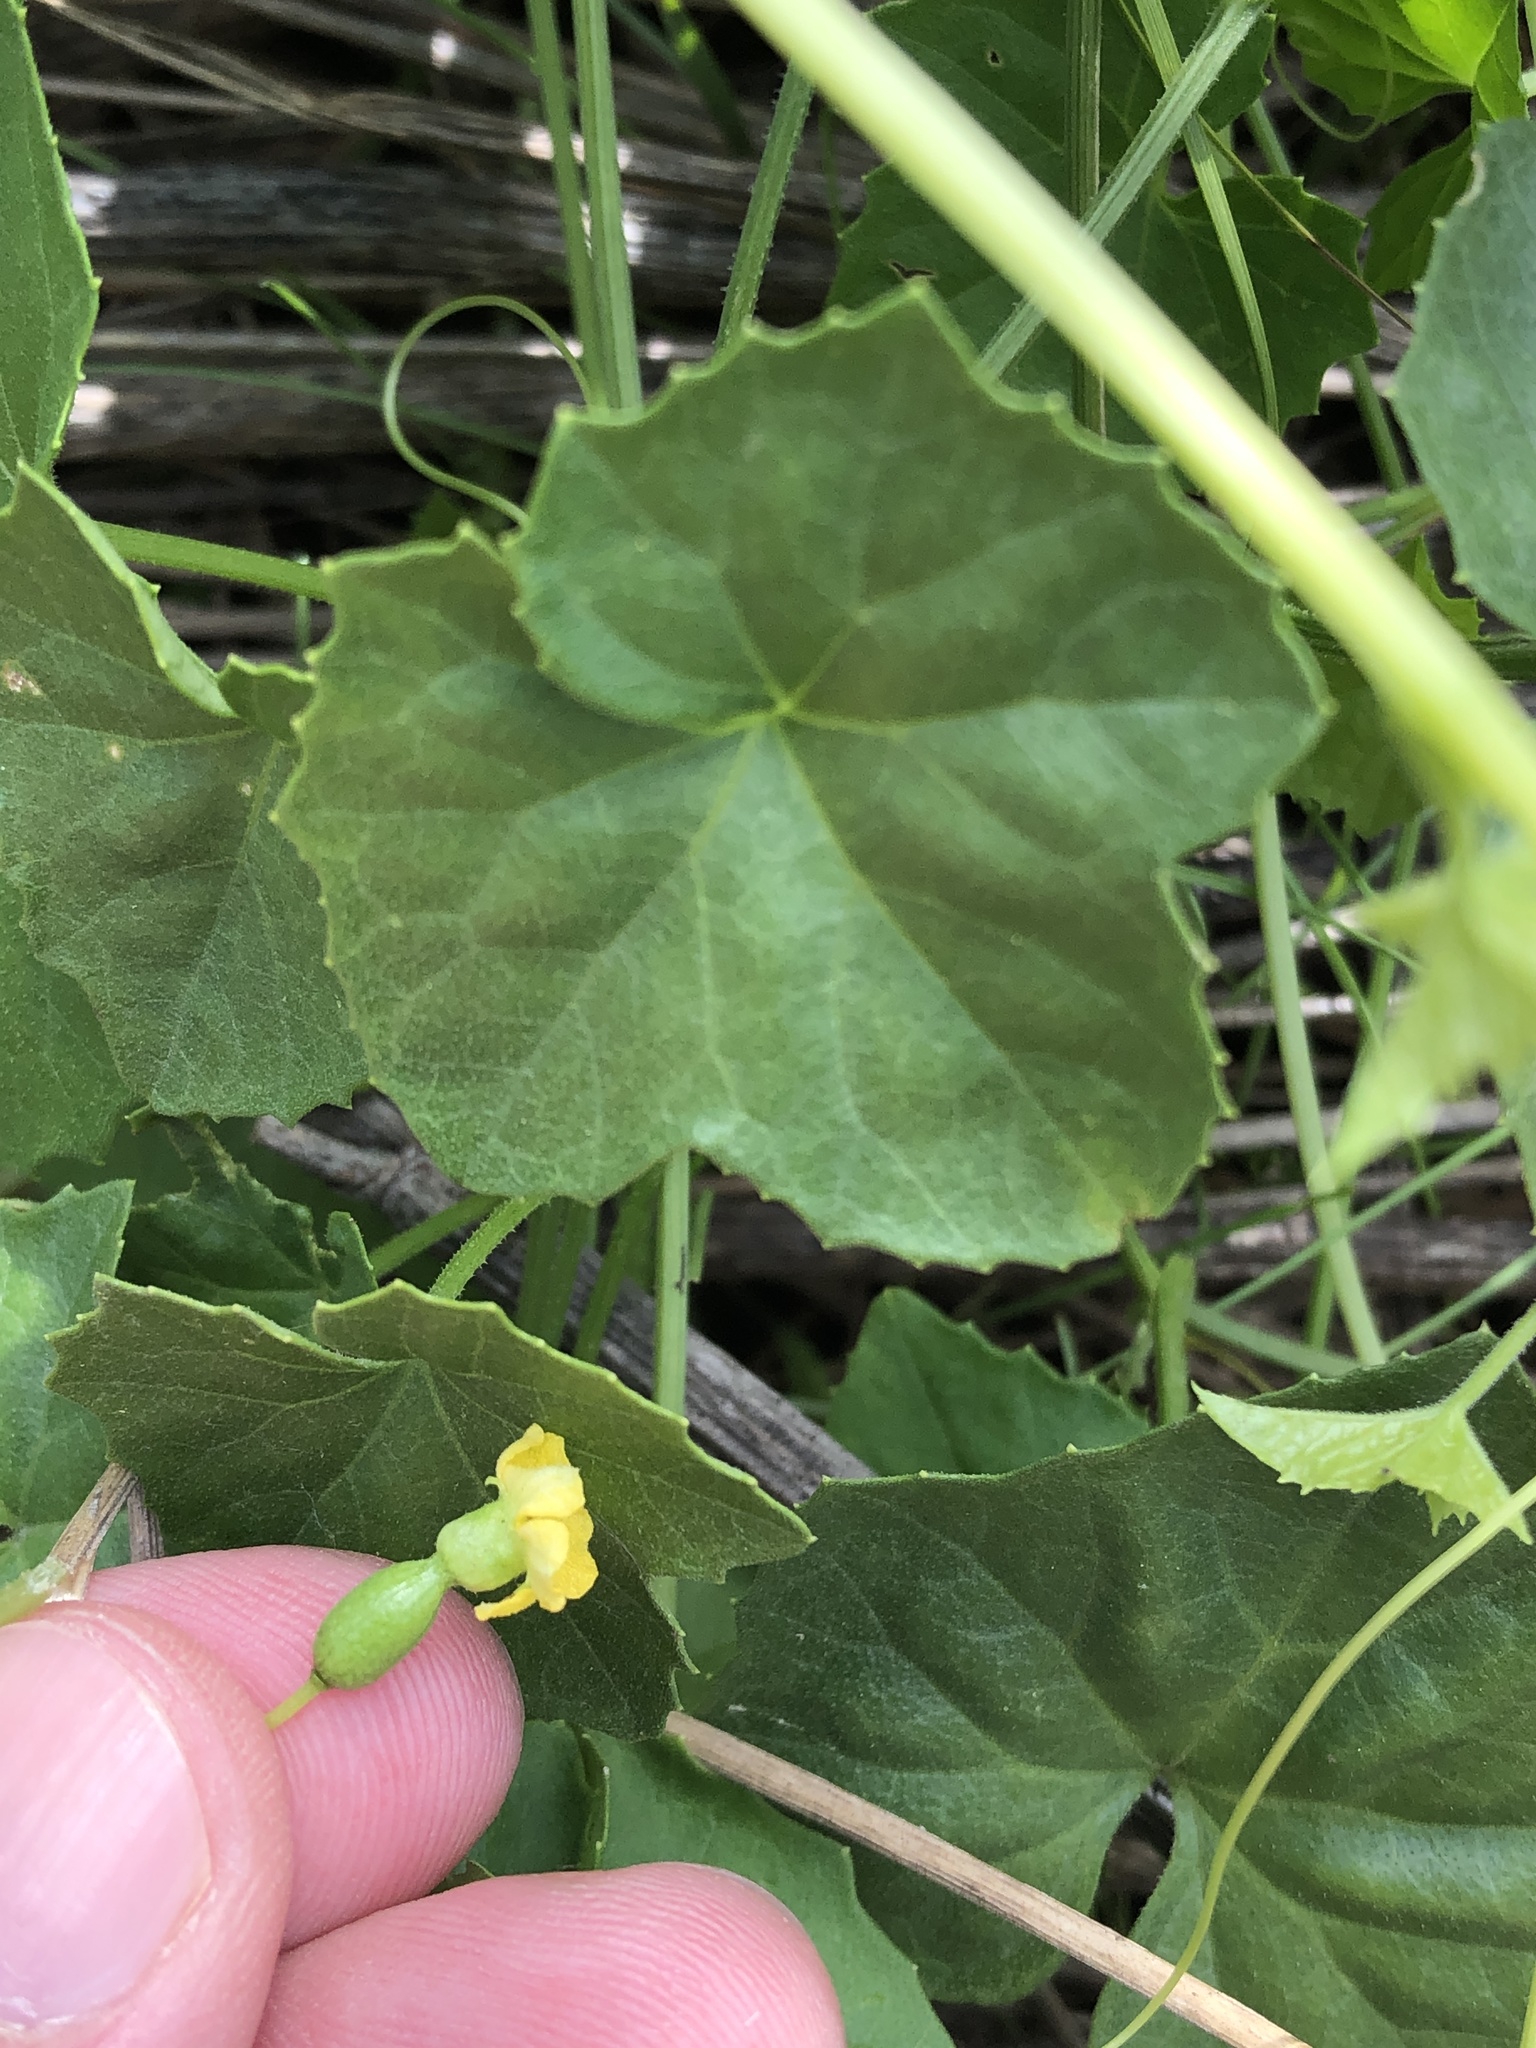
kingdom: Plantae
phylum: Tracheophyta
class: Magnoliopsida
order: Cucurbitales
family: Cucurbitaceae
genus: Melothria
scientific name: Melothria pendula
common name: Creeping-cucumber
